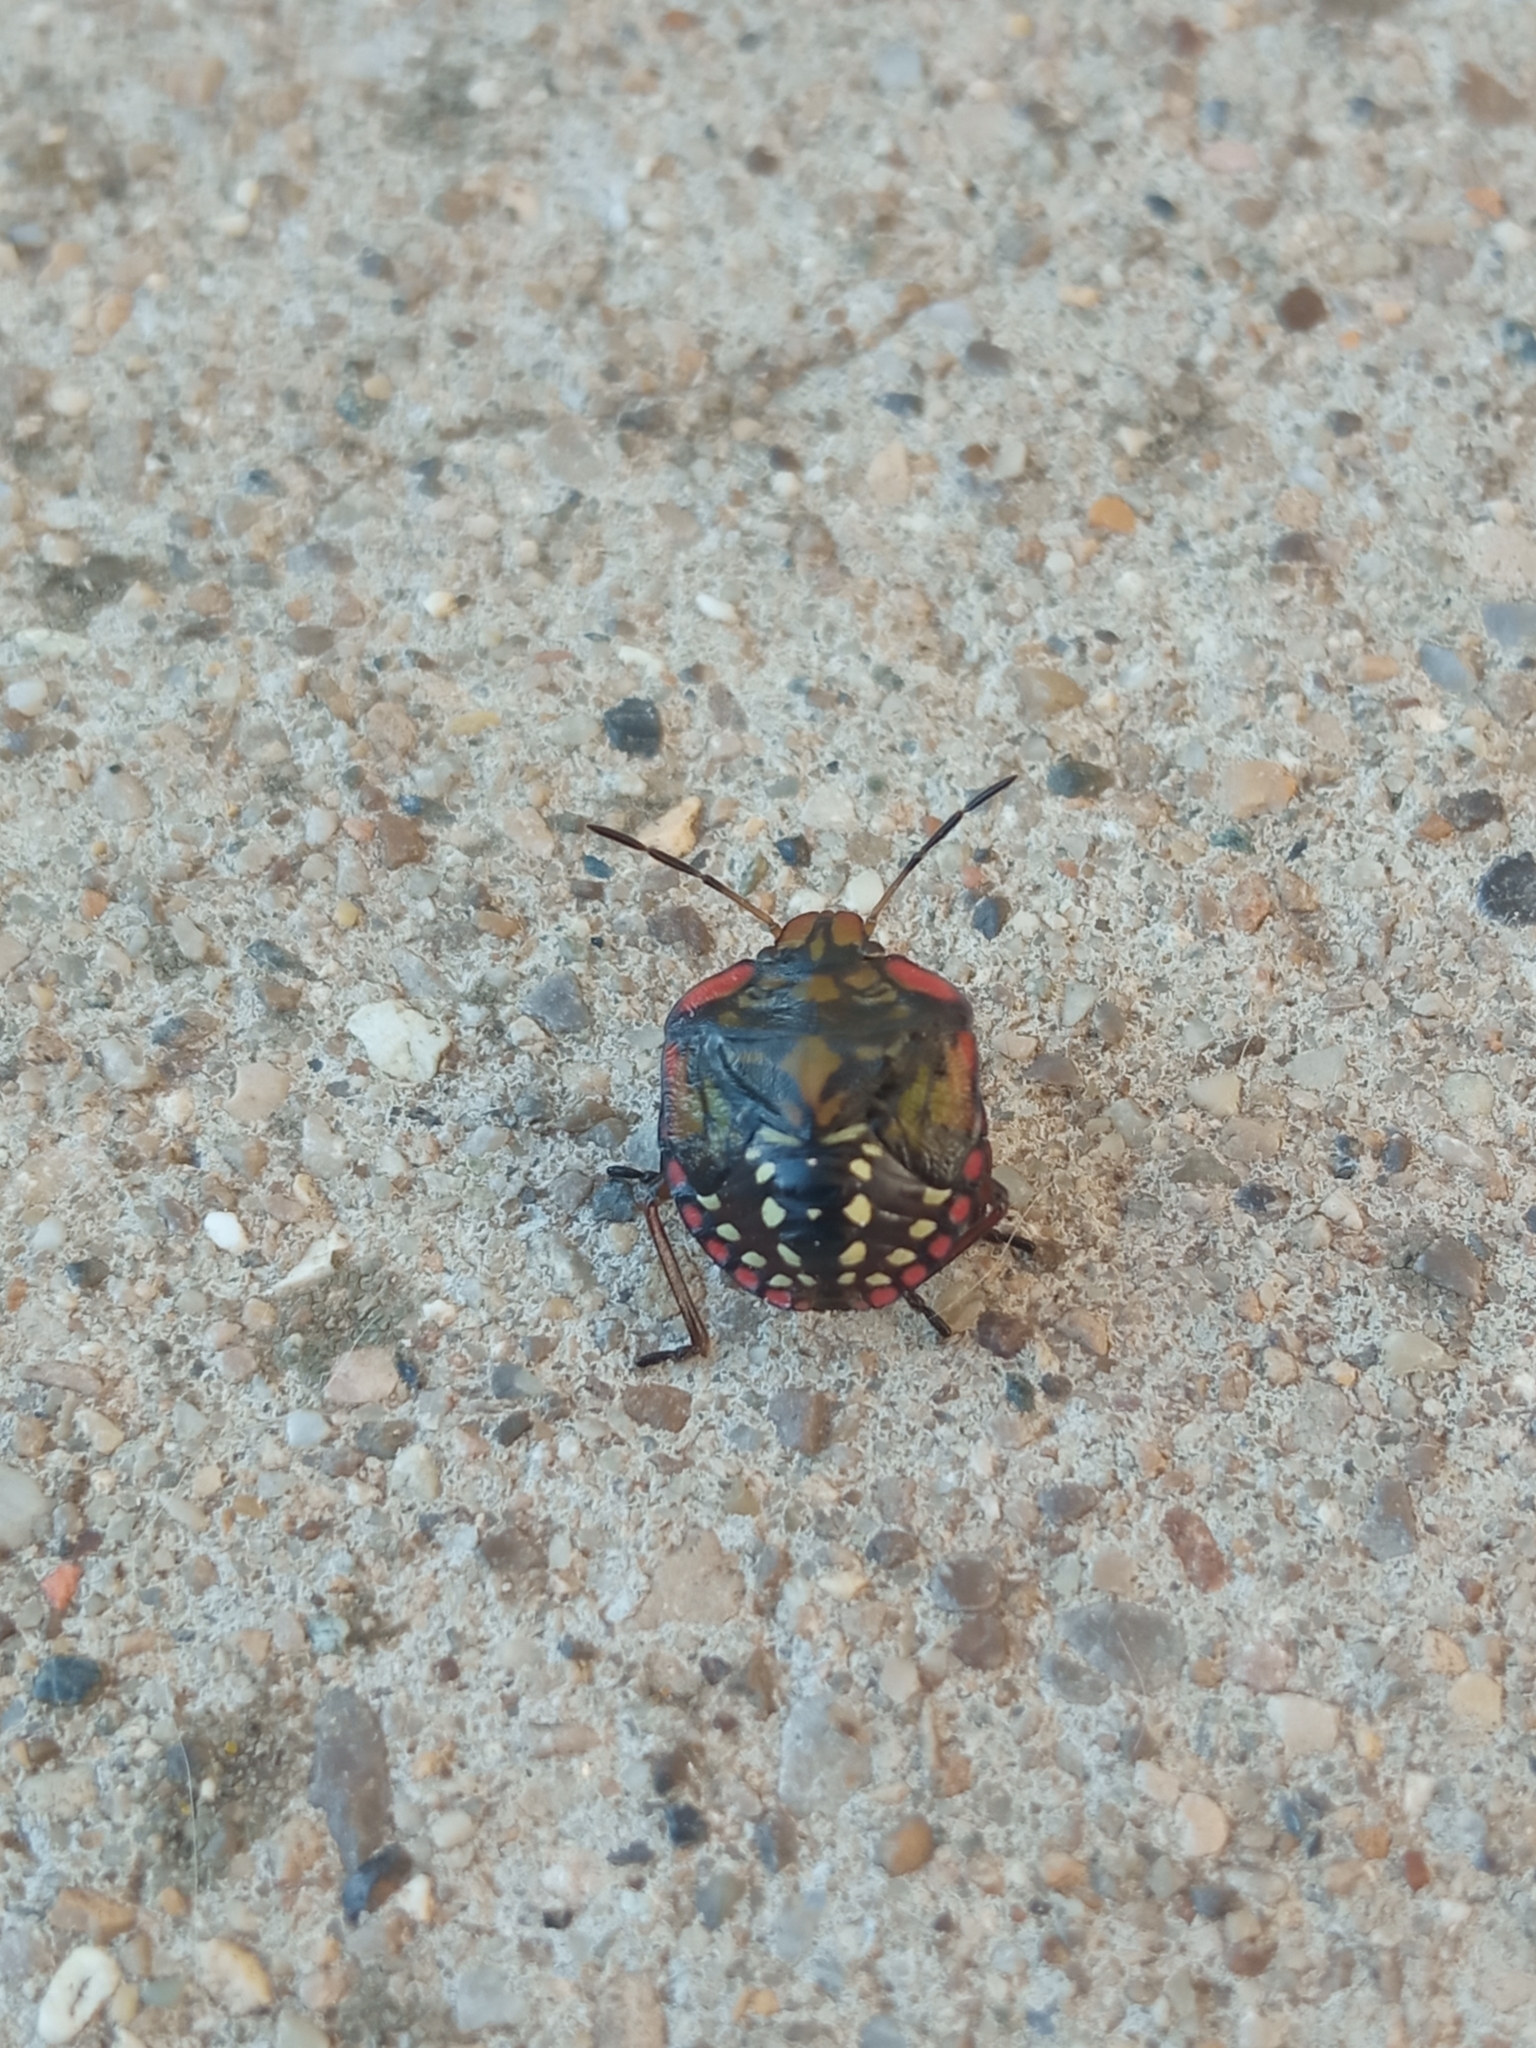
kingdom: Animalia
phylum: Arthropoda
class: Insecta
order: Hemiptera
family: Pentatomidae
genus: Nezara
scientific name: Nezara viridula
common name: Southern green stink bug
